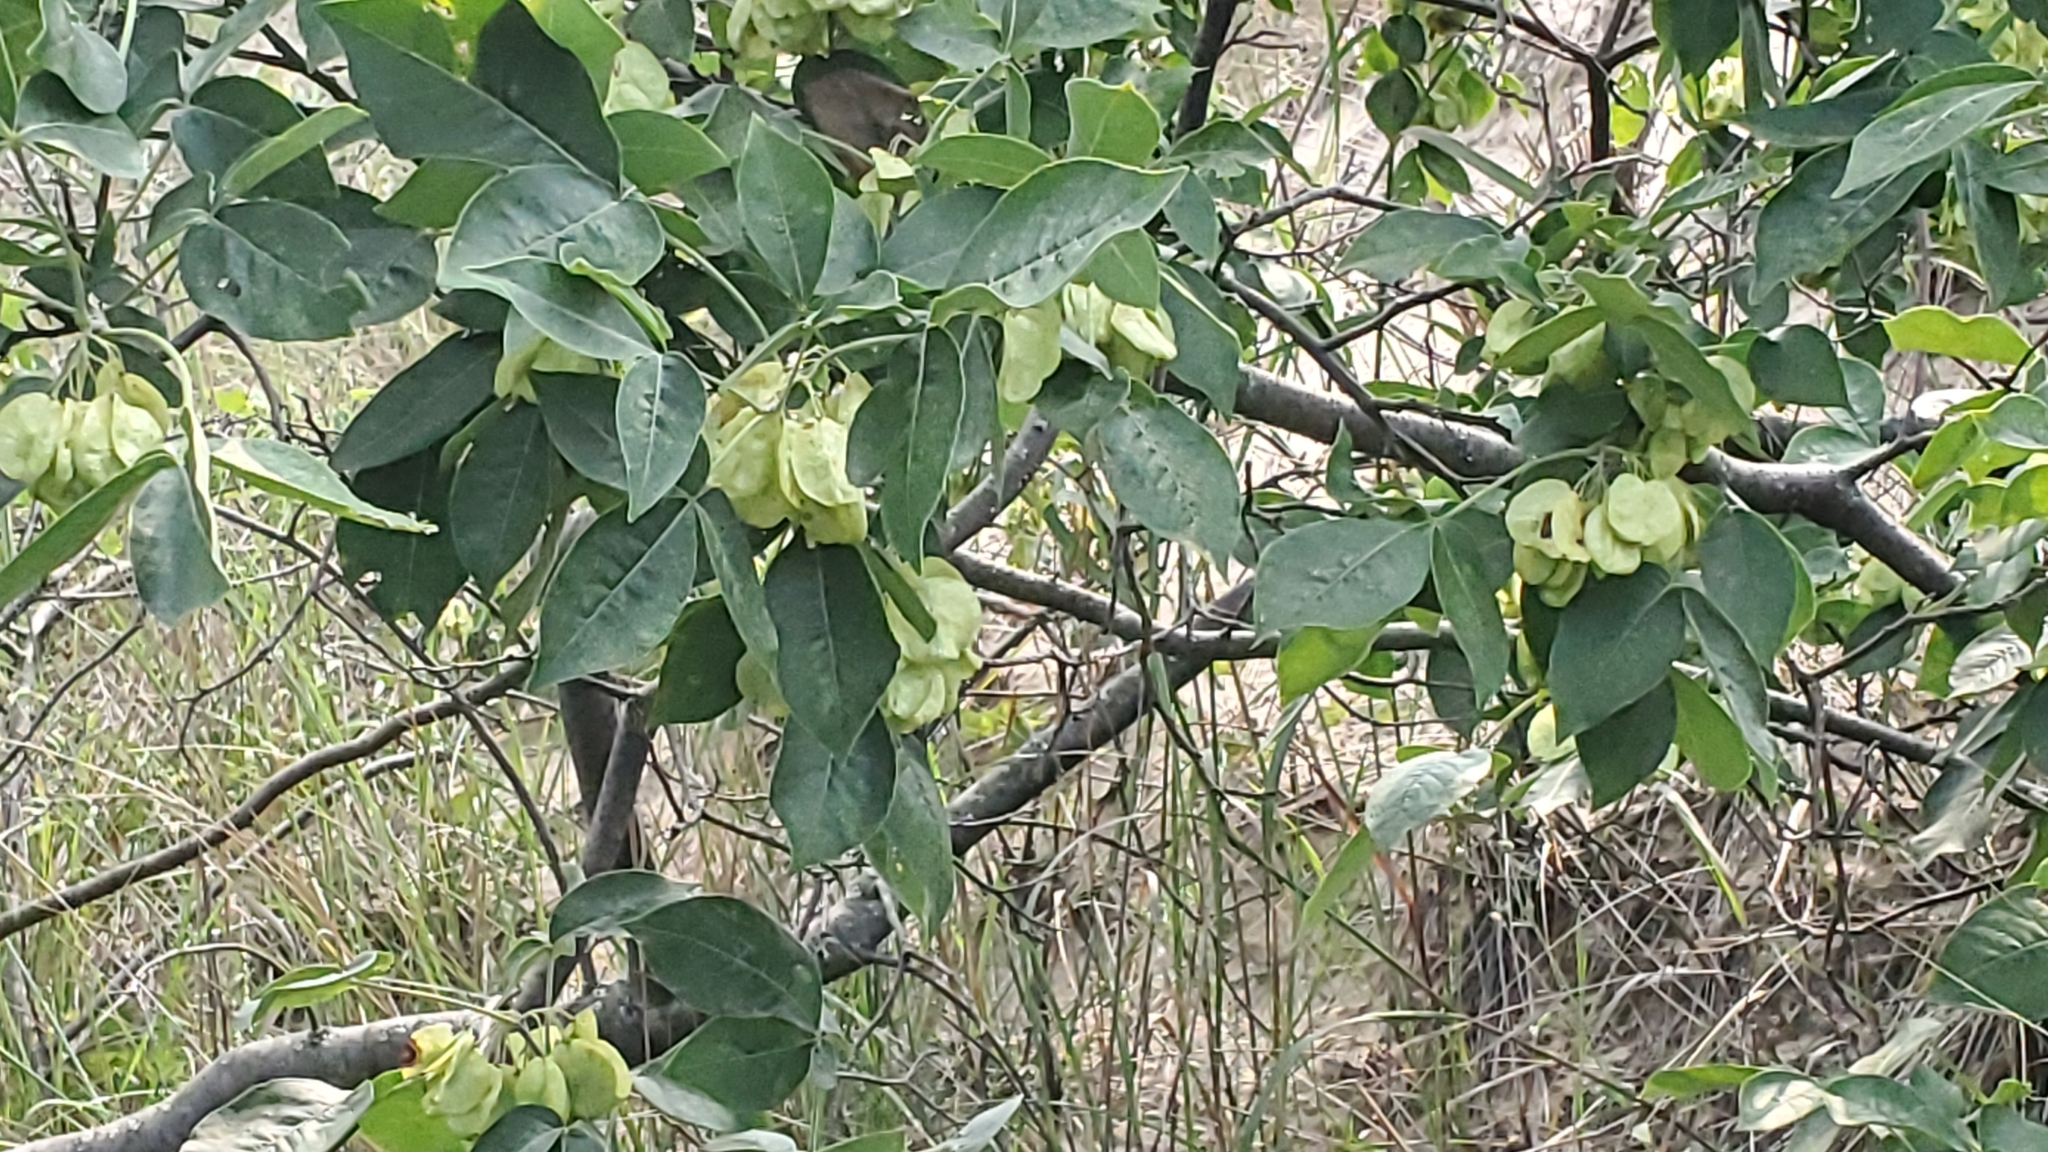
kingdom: Plantae
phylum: Tracheophyta
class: Magnoliopsida
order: Sapindales
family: Rutaceae
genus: Ptelea
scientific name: Ptelea trifoliata
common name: Common hop-tree
